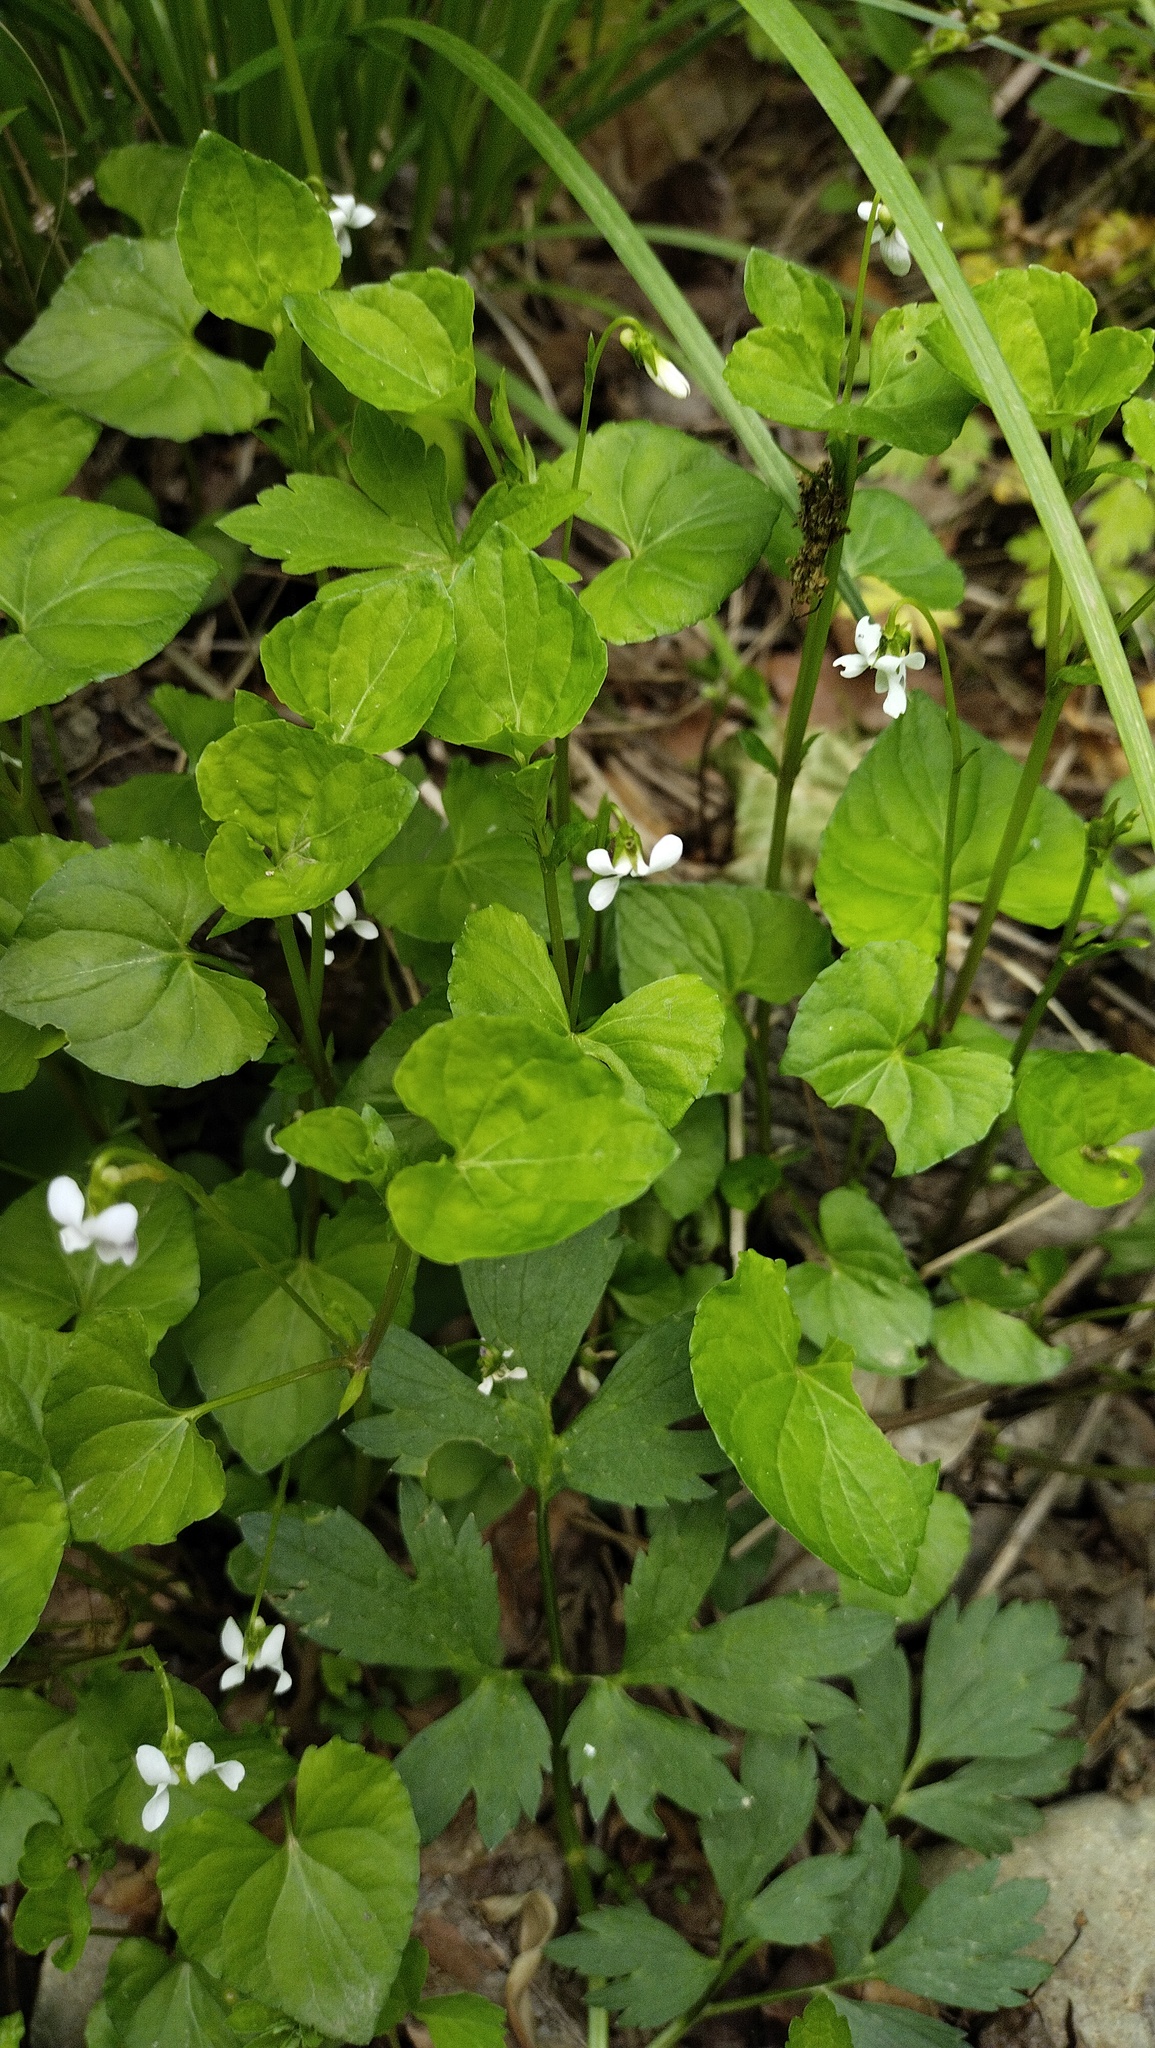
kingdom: Plantae
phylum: Tracheophyta
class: Magnoliopsida
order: Malpighiales
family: Violaceae
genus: Viola
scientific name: Viola
